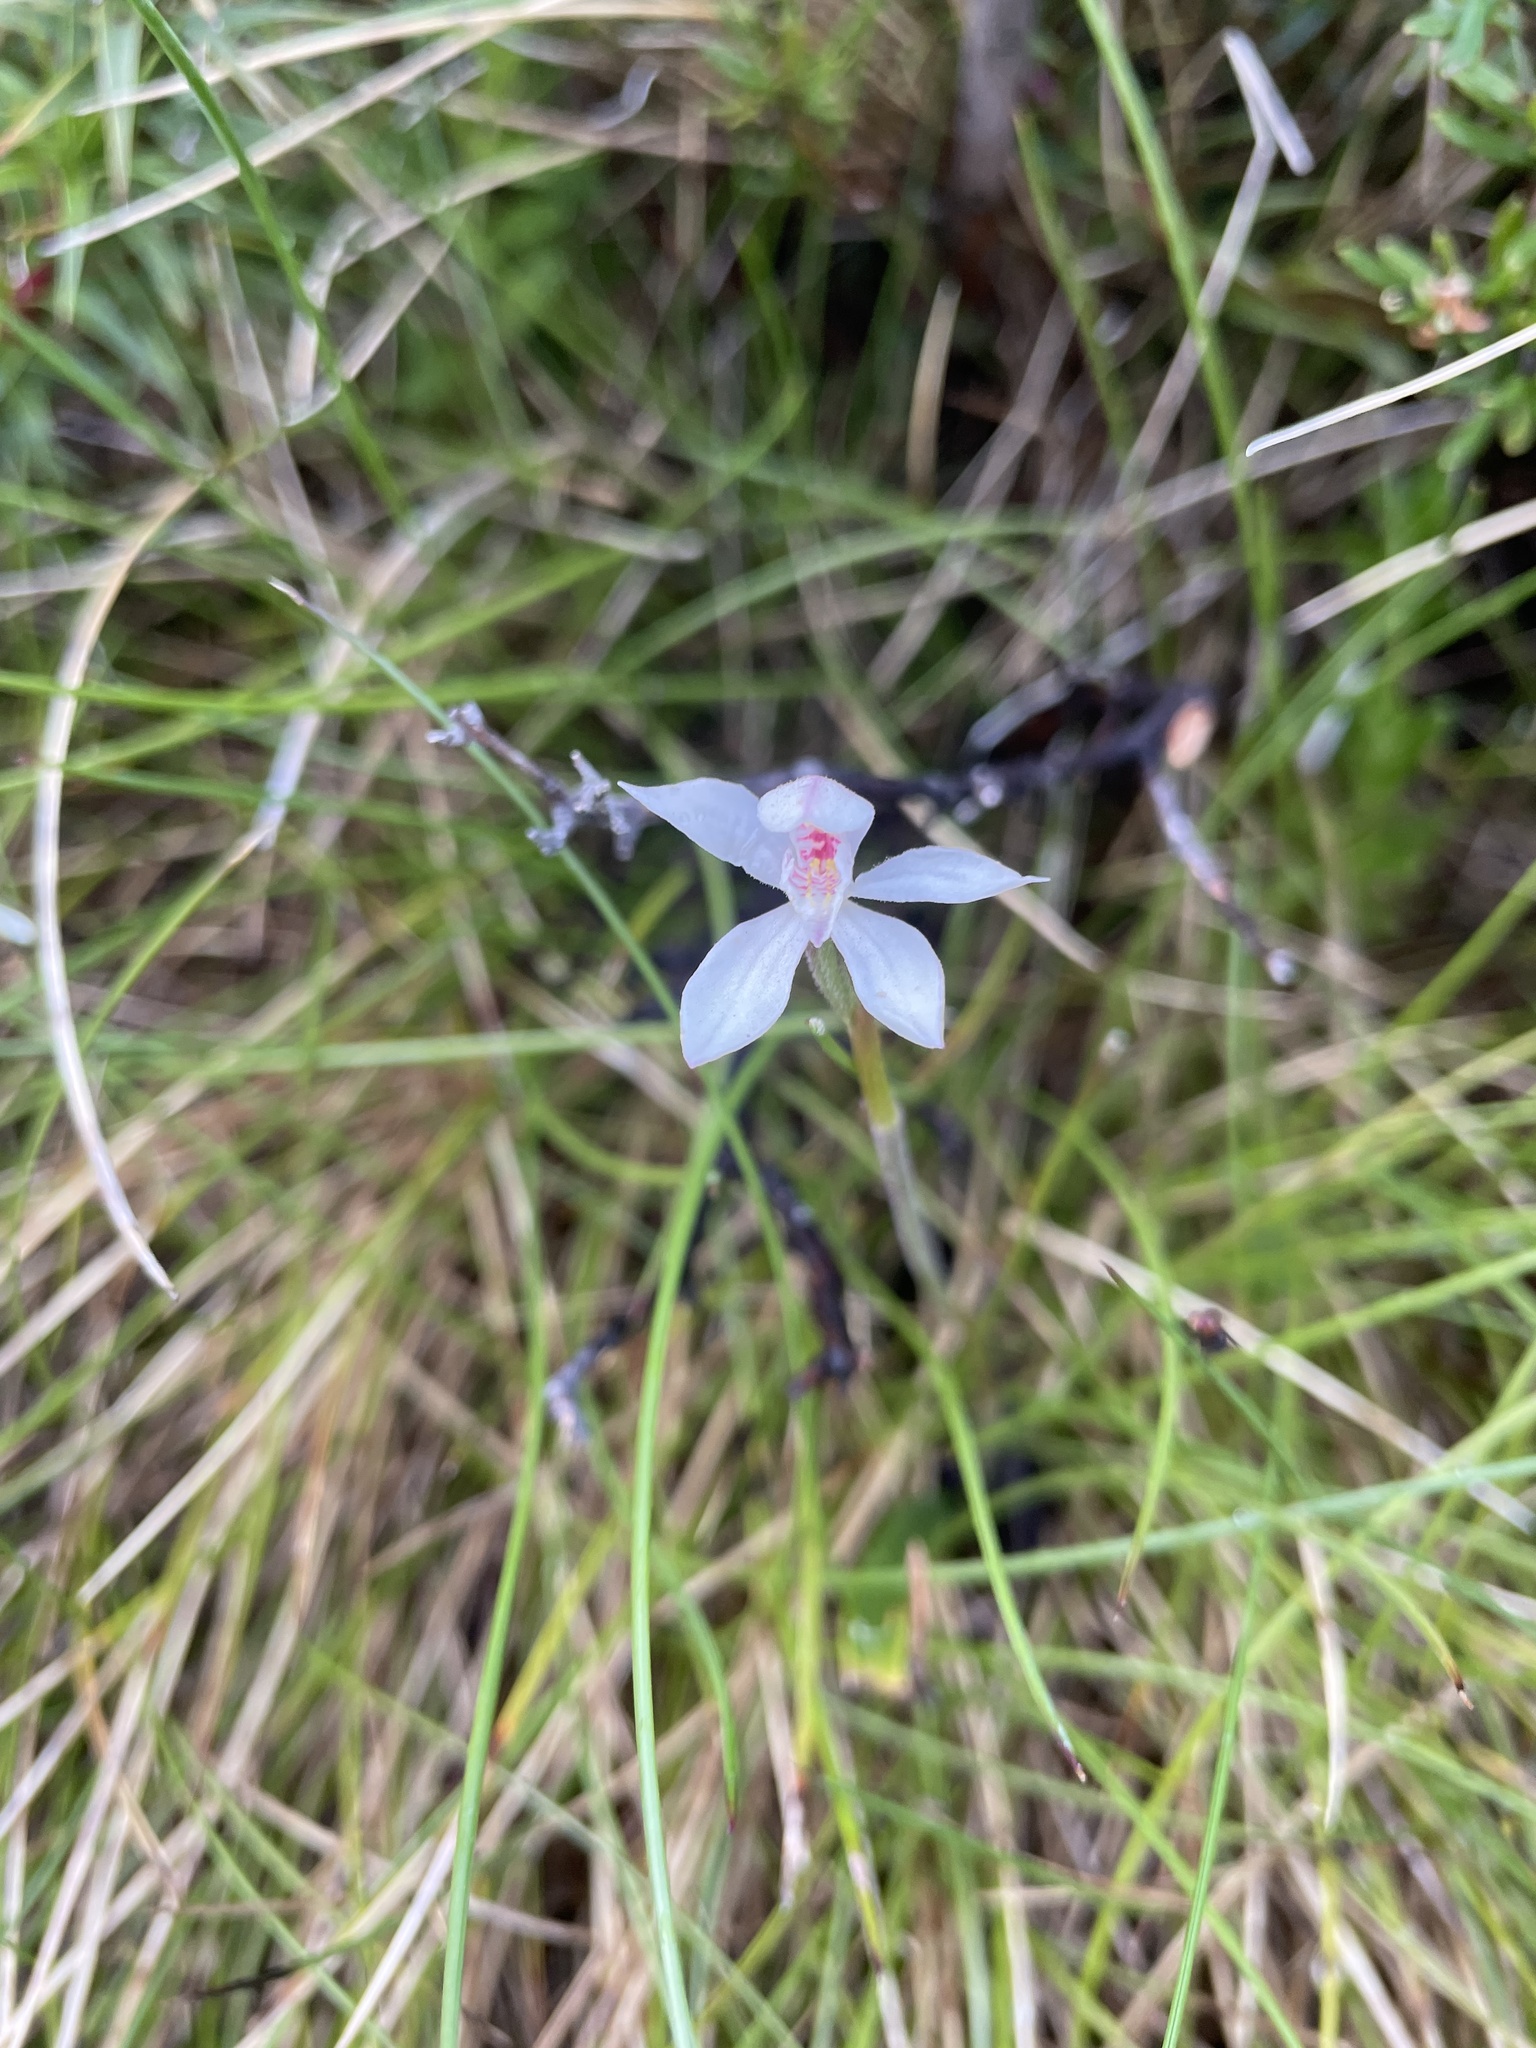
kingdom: Plantae
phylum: Tracheophyta
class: Liliopsida
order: Asparagales
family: Orchidaceae
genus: Caladenia
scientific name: Caladenia alpina
